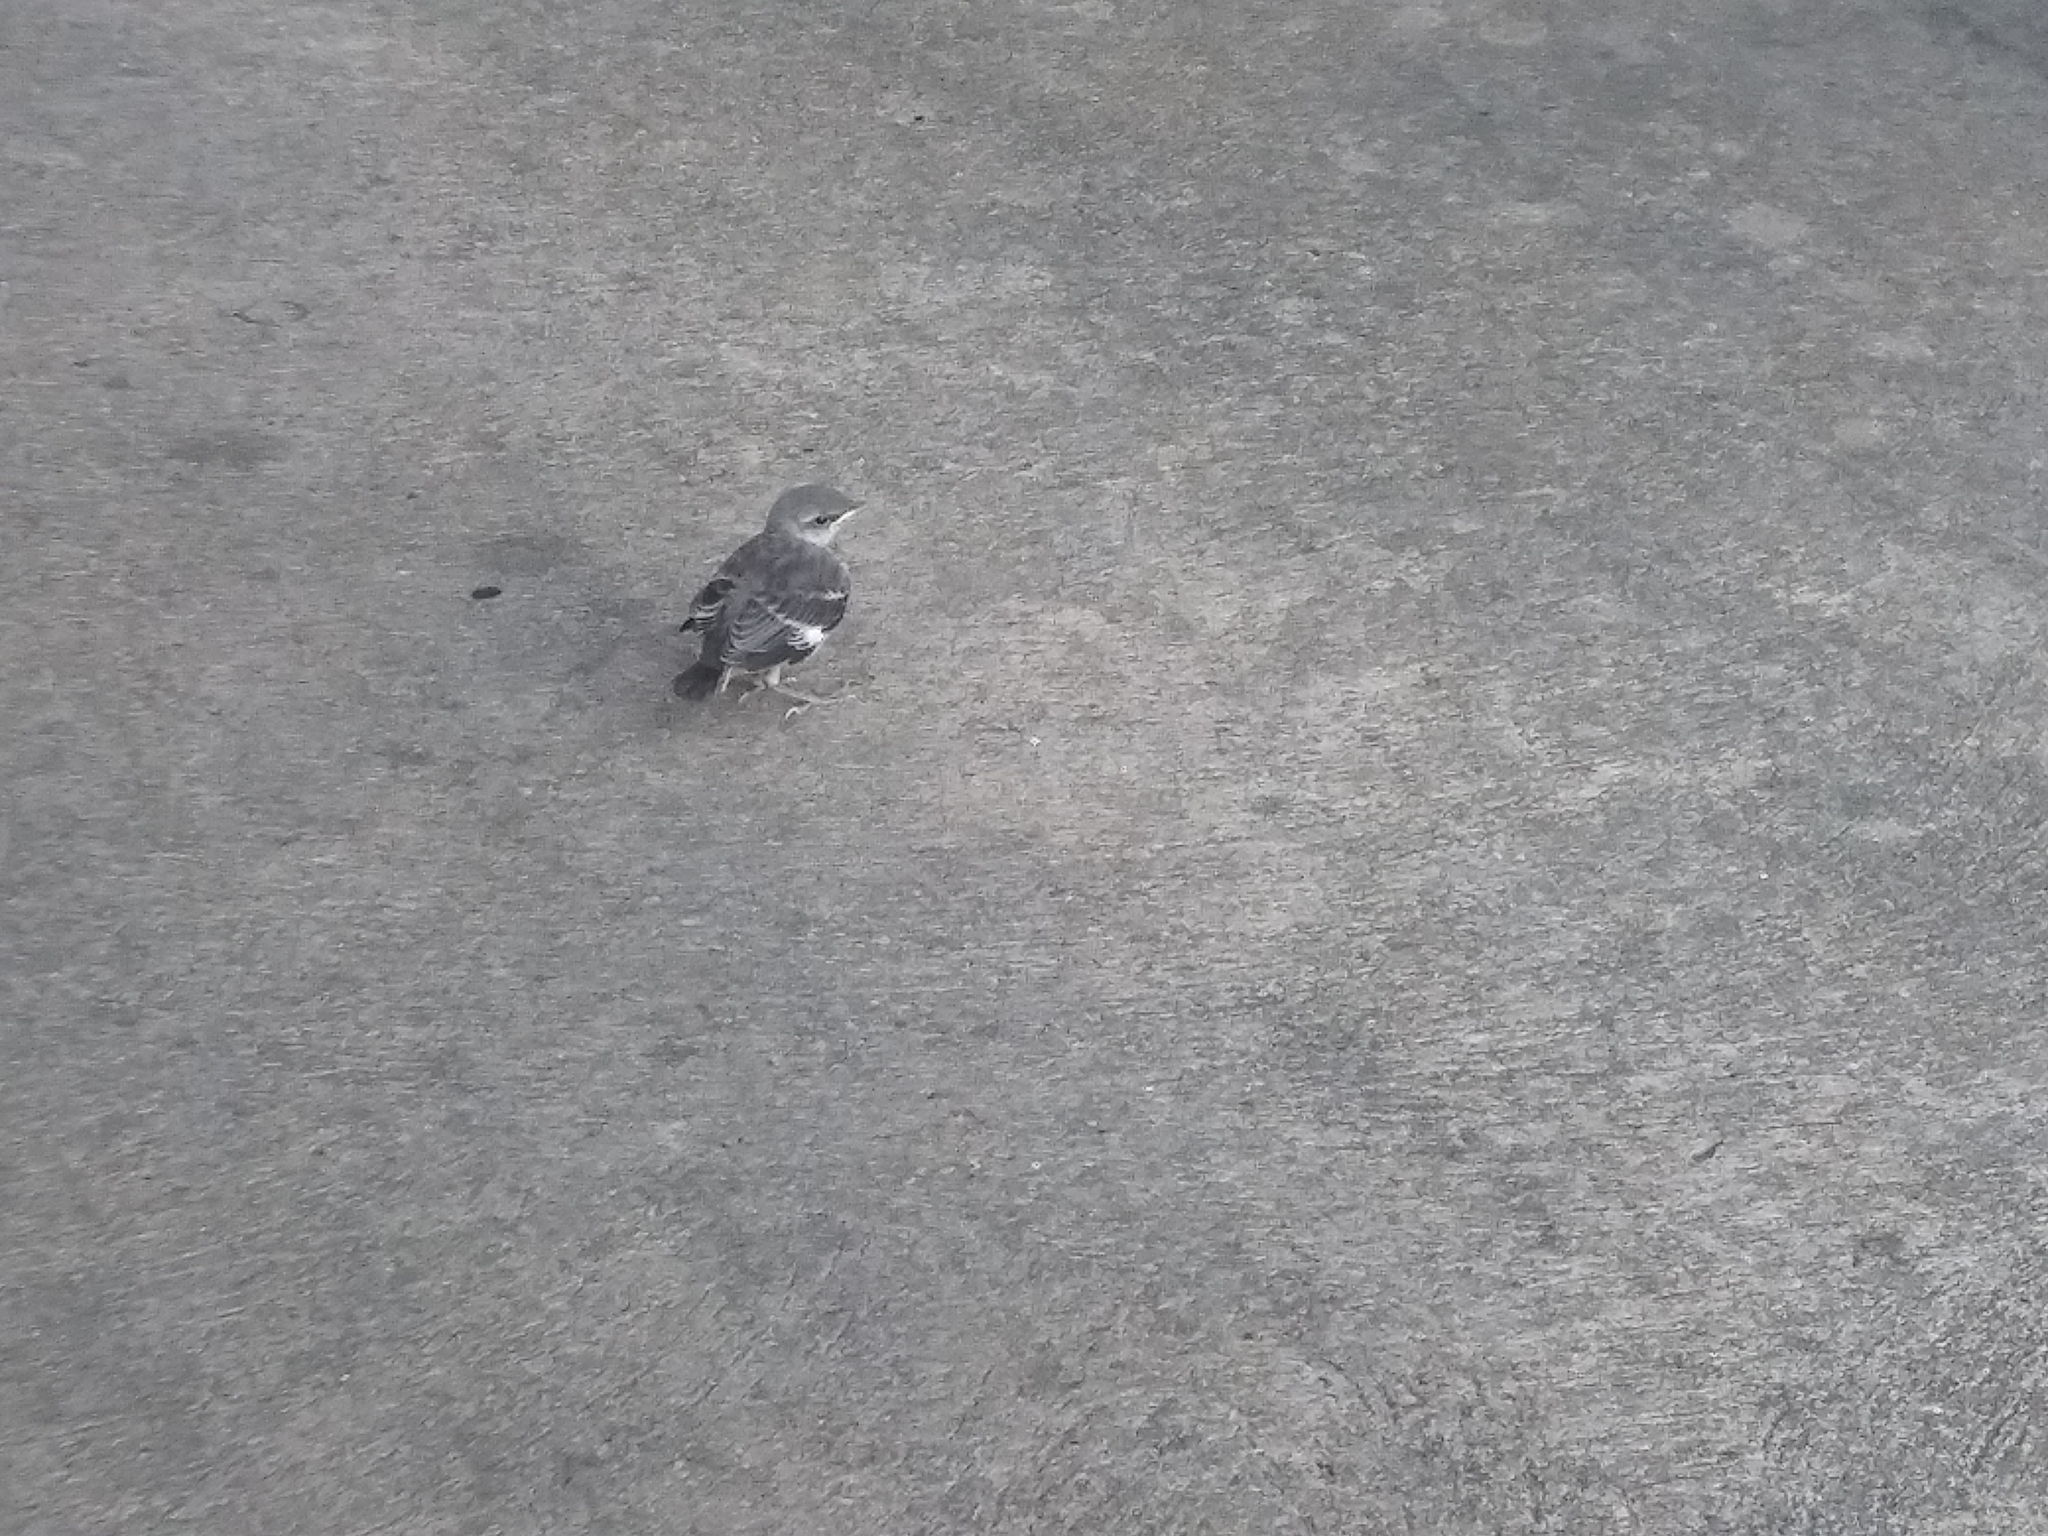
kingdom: Animalia
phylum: Chordata
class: Aves
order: Passeriformes
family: Mimidae
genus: Mimus
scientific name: Mimus polyglottos
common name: Northern mockingbird
